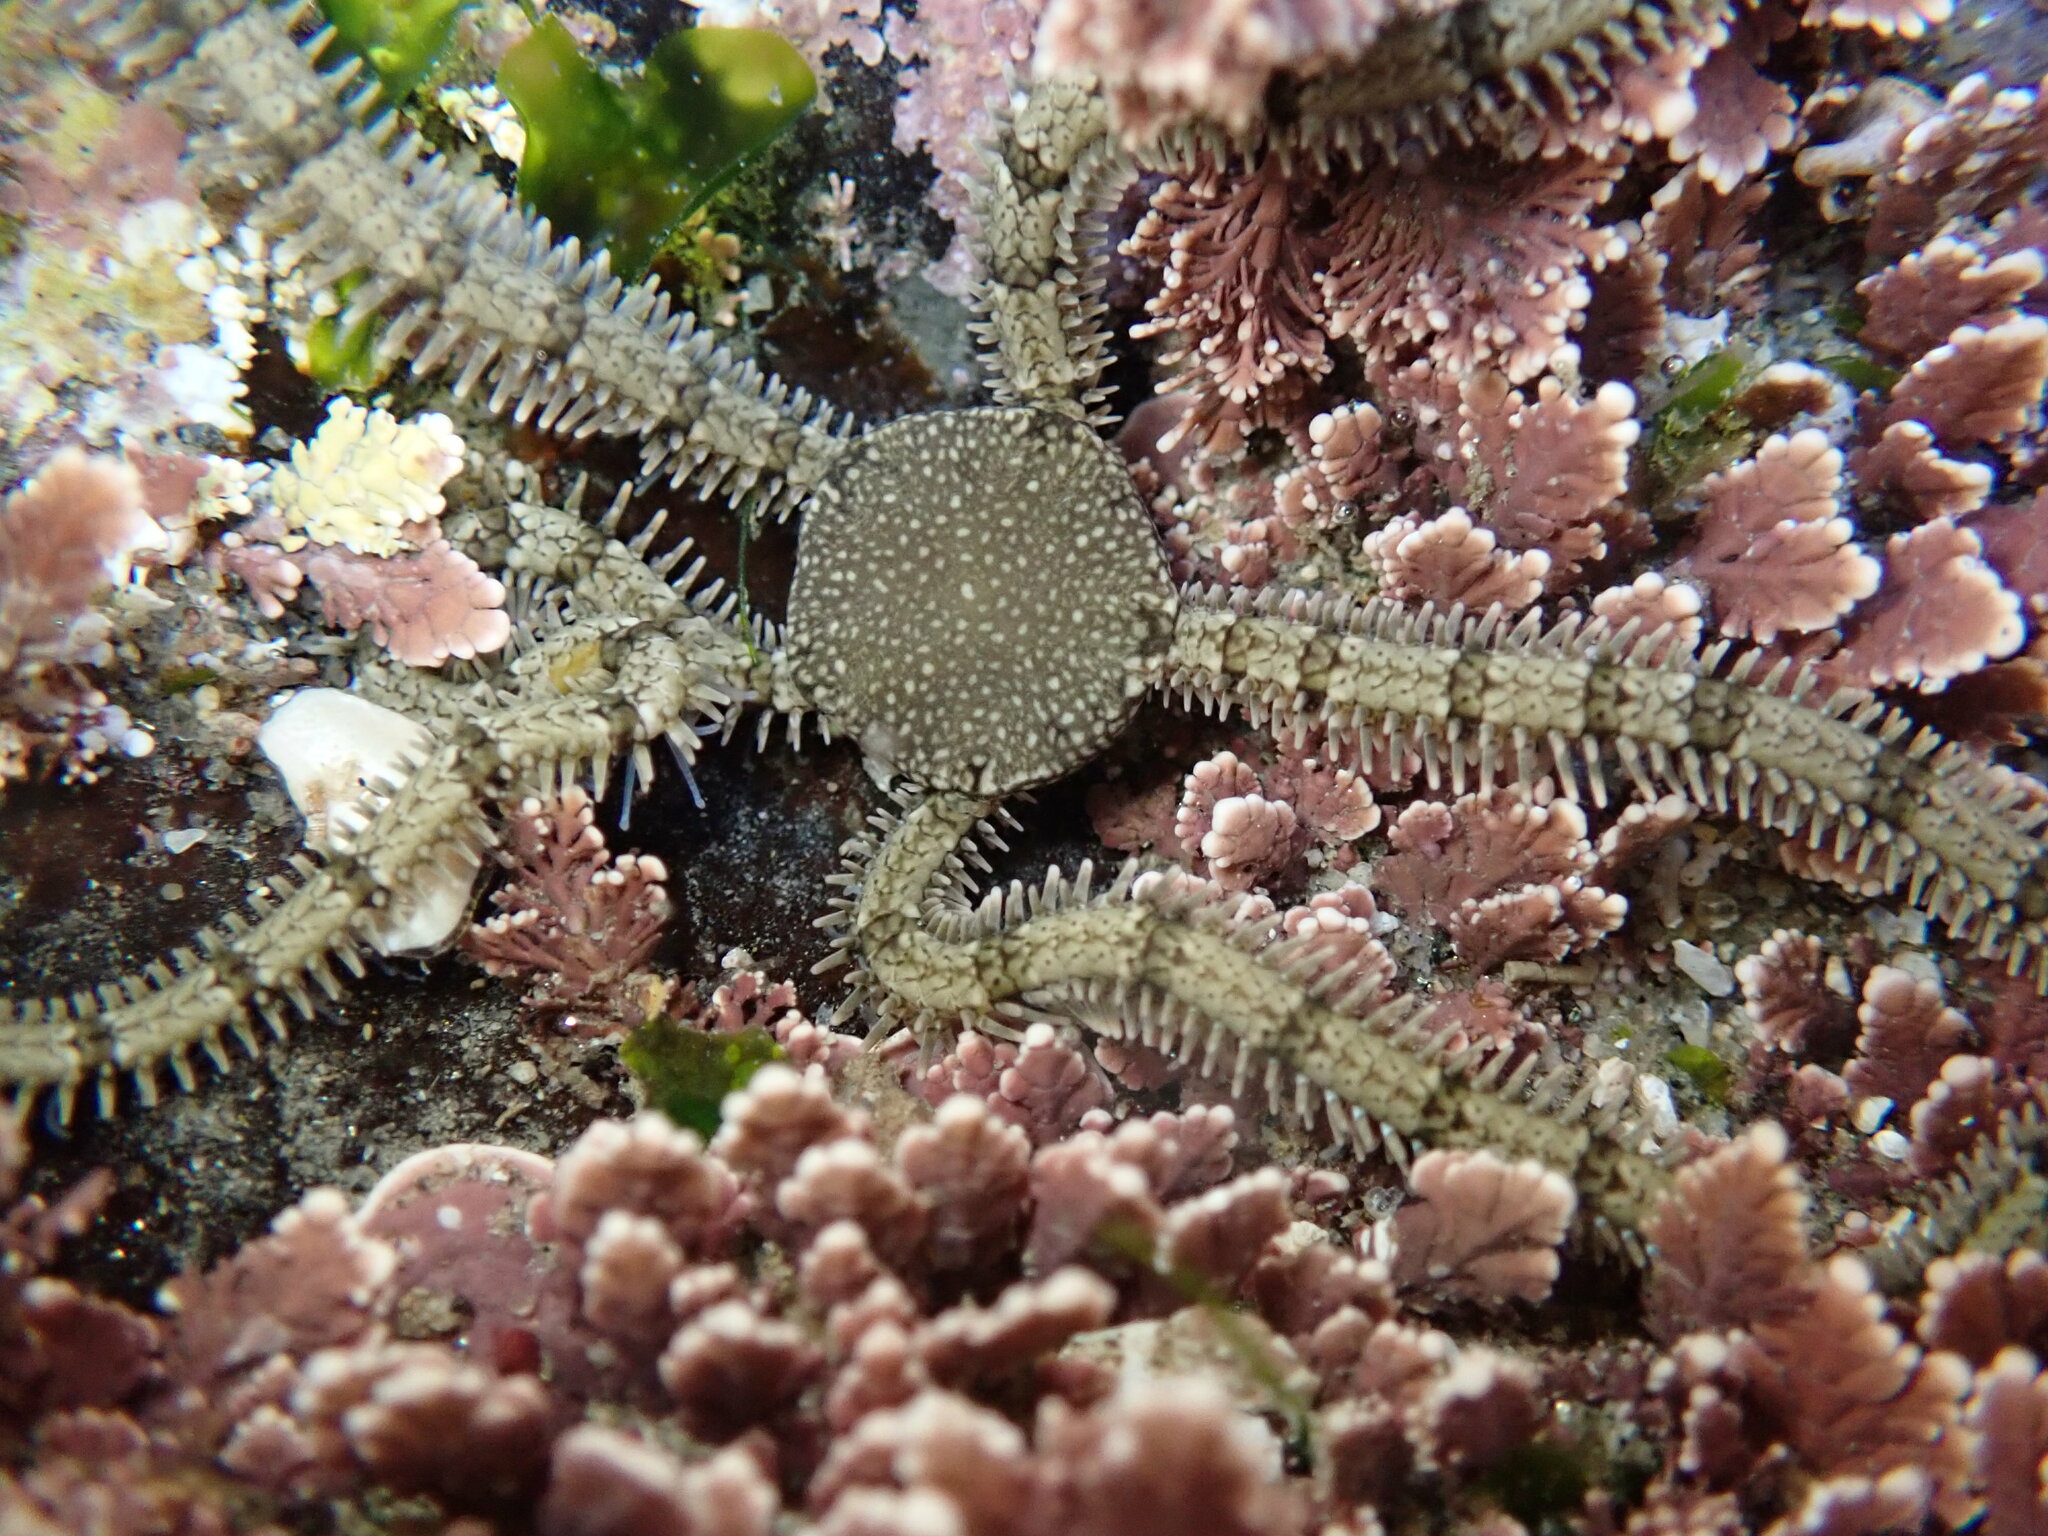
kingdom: Animalia
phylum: Echinodermata
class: Ophiuroidea
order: Amphilepidida
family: Ophionereididae
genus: Ophionereis
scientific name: Ophionereis annulata
